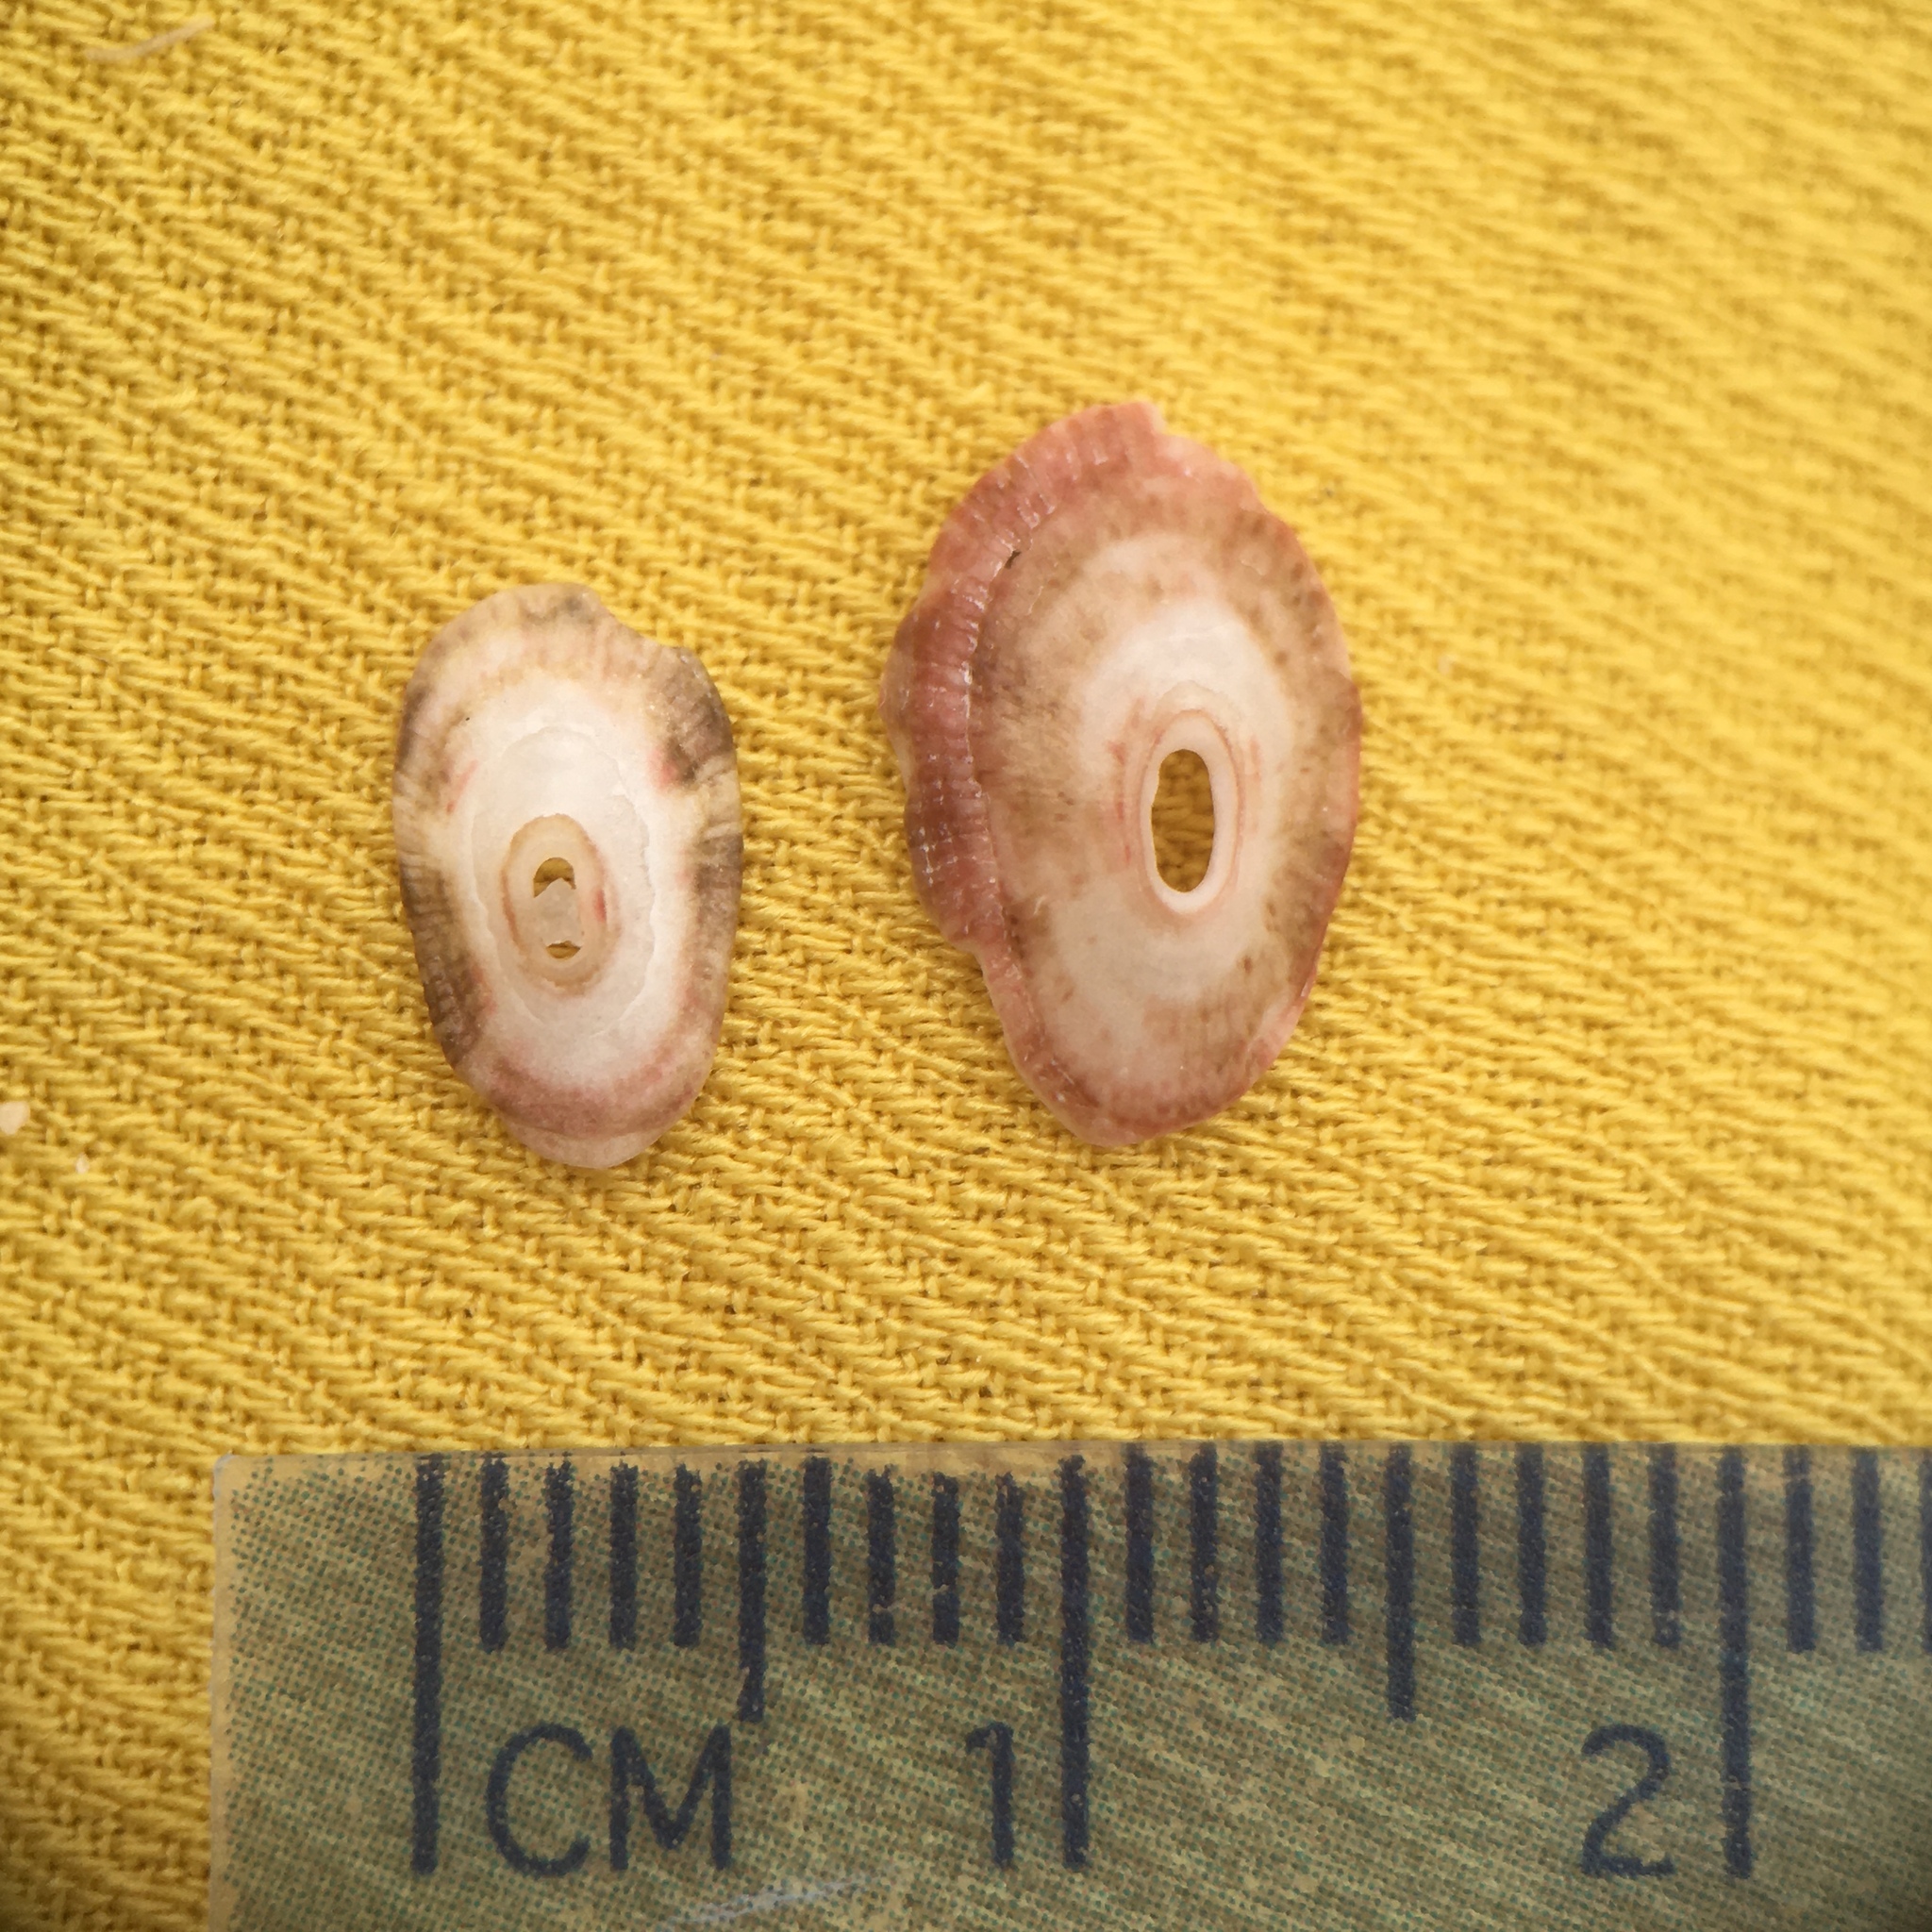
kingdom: Animalia
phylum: Mollusca
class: Gastropoda
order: Lepetellida
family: Fissurellidae
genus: Fissurella
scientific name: Fissurella nubecula
